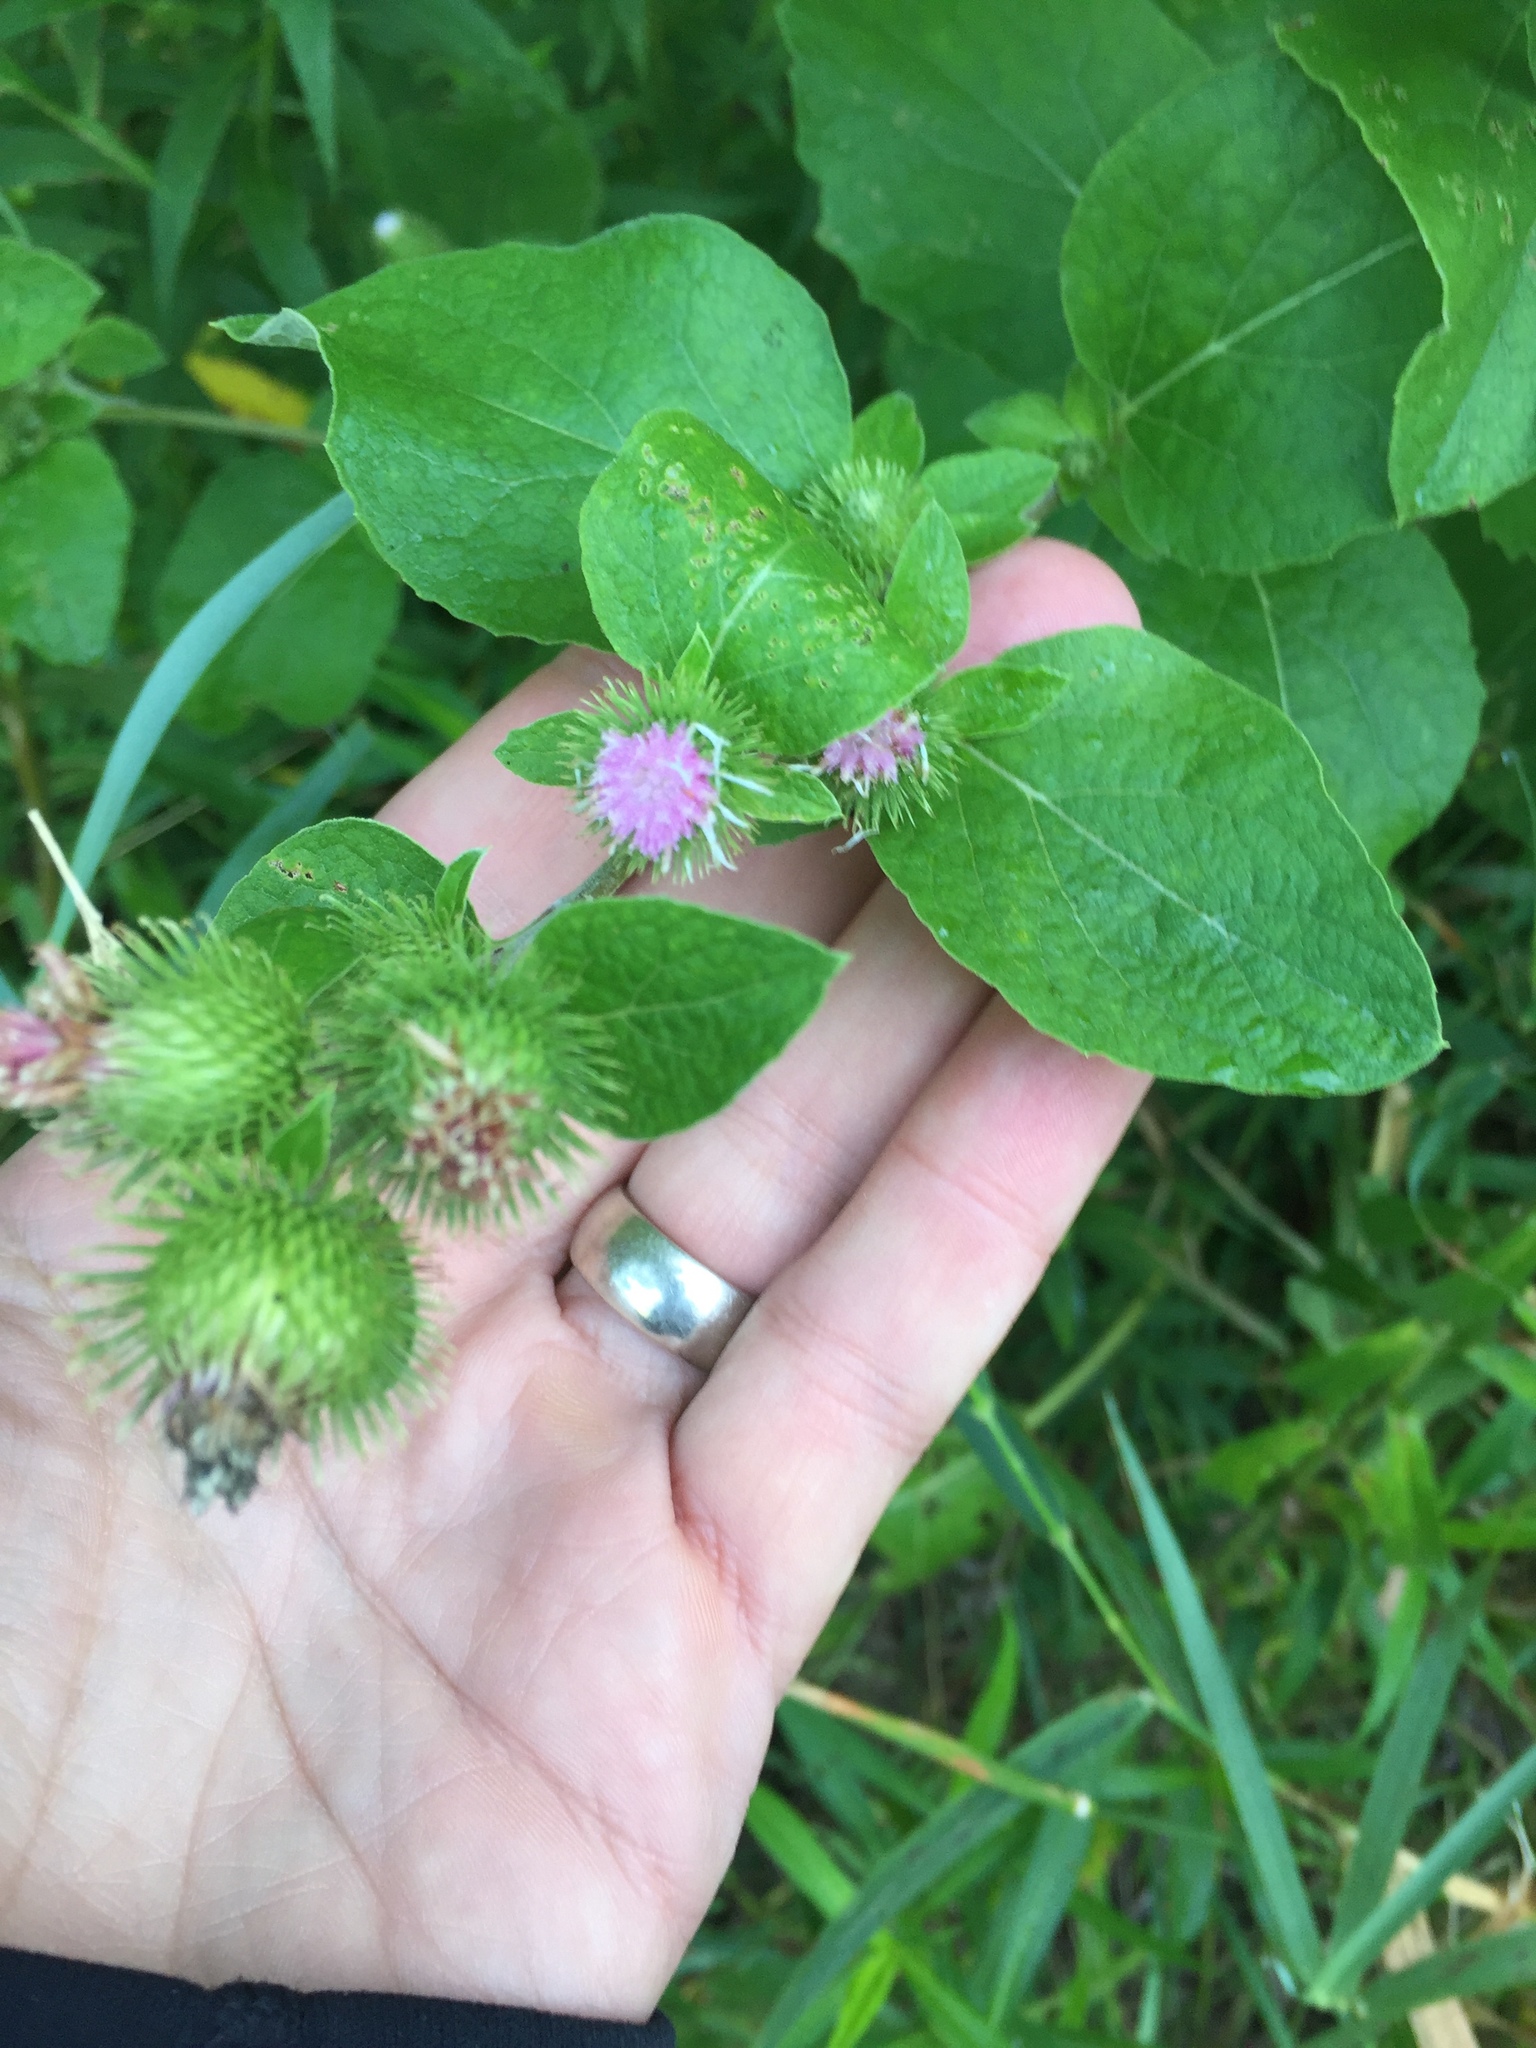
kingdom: Plantae
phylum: Tracheophyta
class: Magnoliopsida
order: Asterales
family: Asteraceae
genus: Arctium
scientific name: Arctium minus
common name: Lesser burdock
